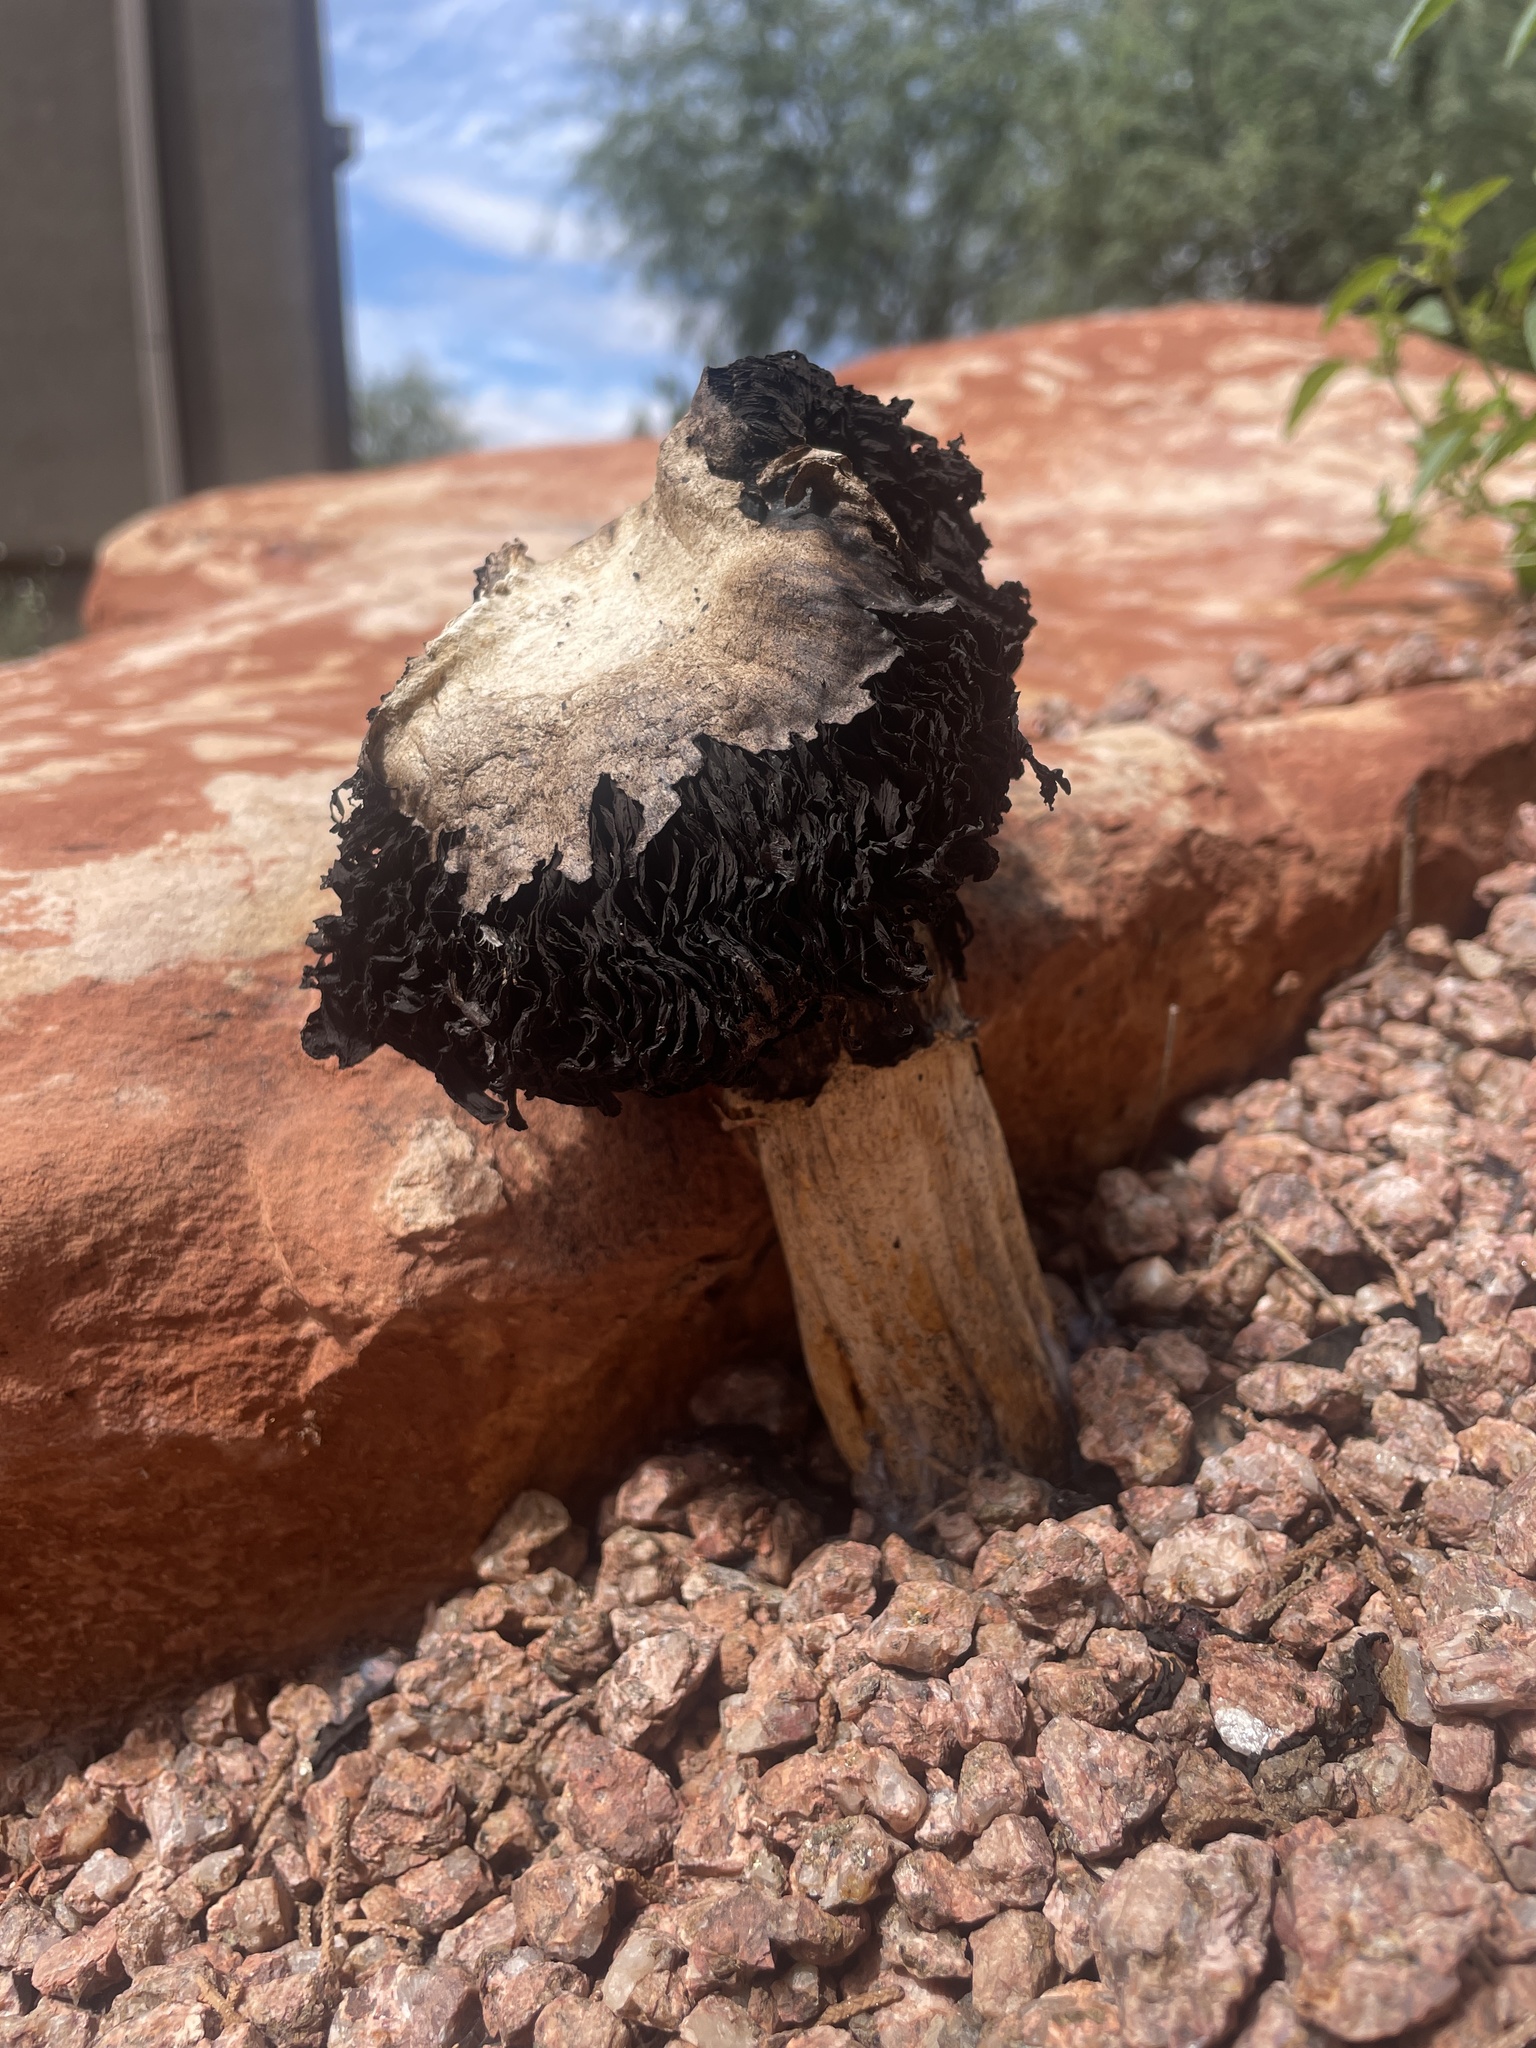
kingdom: Fungi
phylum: Basidiomycota
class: Agaricomycetes
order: Agaricales
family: Agaricaceae
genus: Agaricus
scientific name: Agaricus evertens
